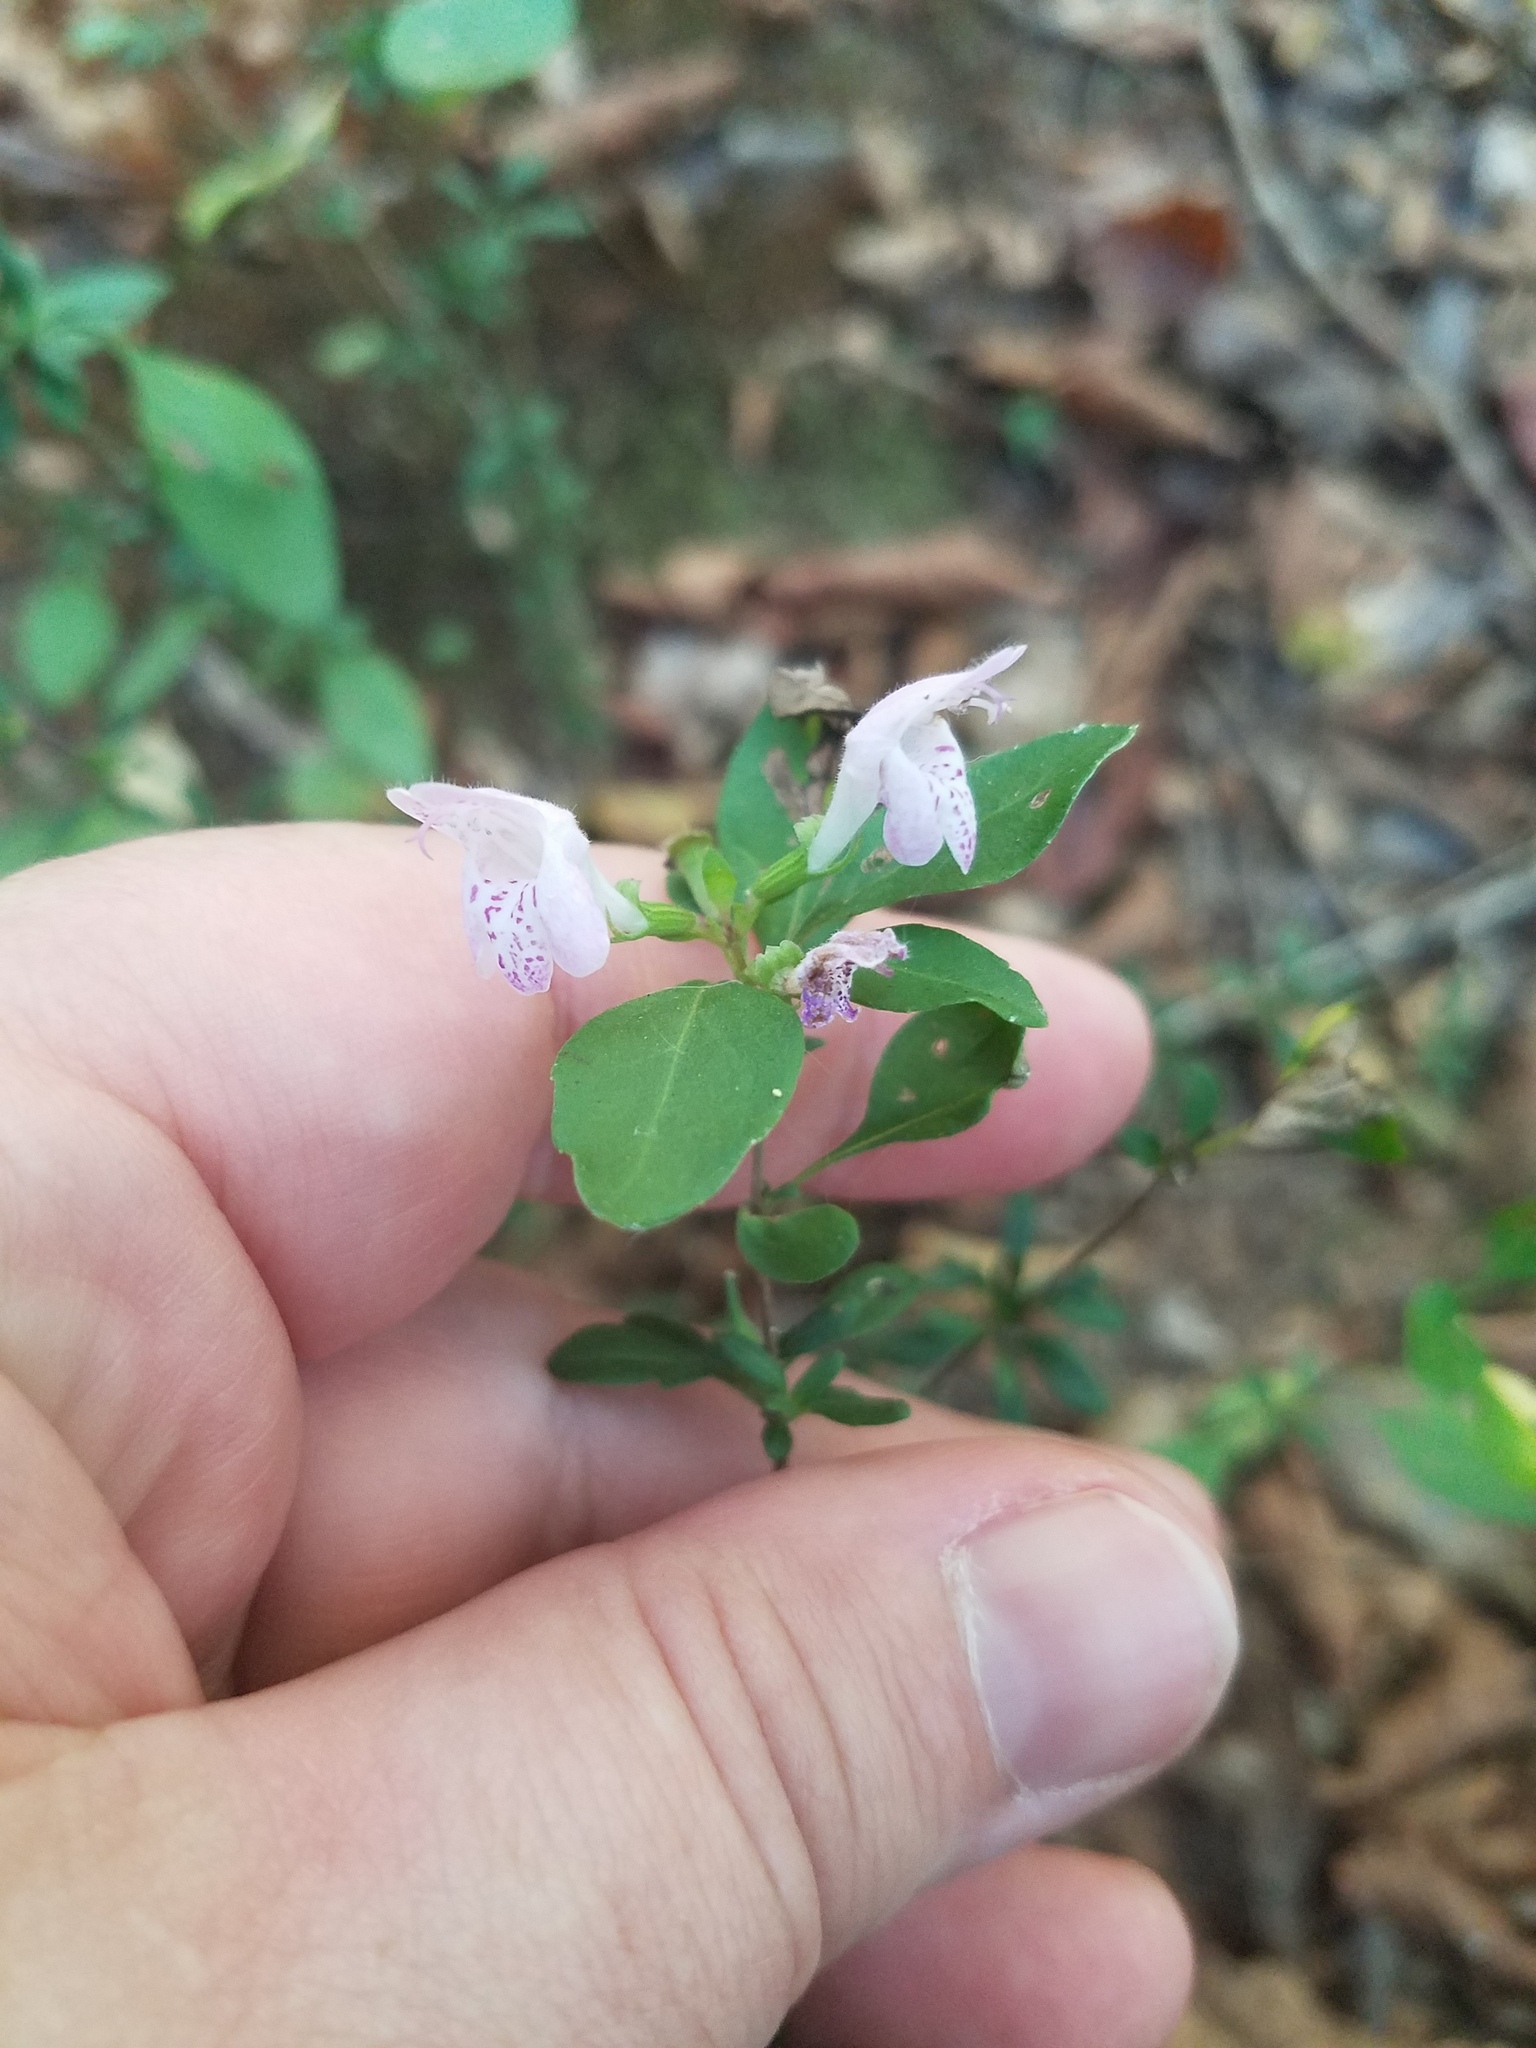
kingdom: Plantae
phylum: Tracheophyta
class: Magnoliopsida
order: Lamiales
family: Lamiaceae
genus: Clinopodium
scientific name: Clinopodium carolinianum
